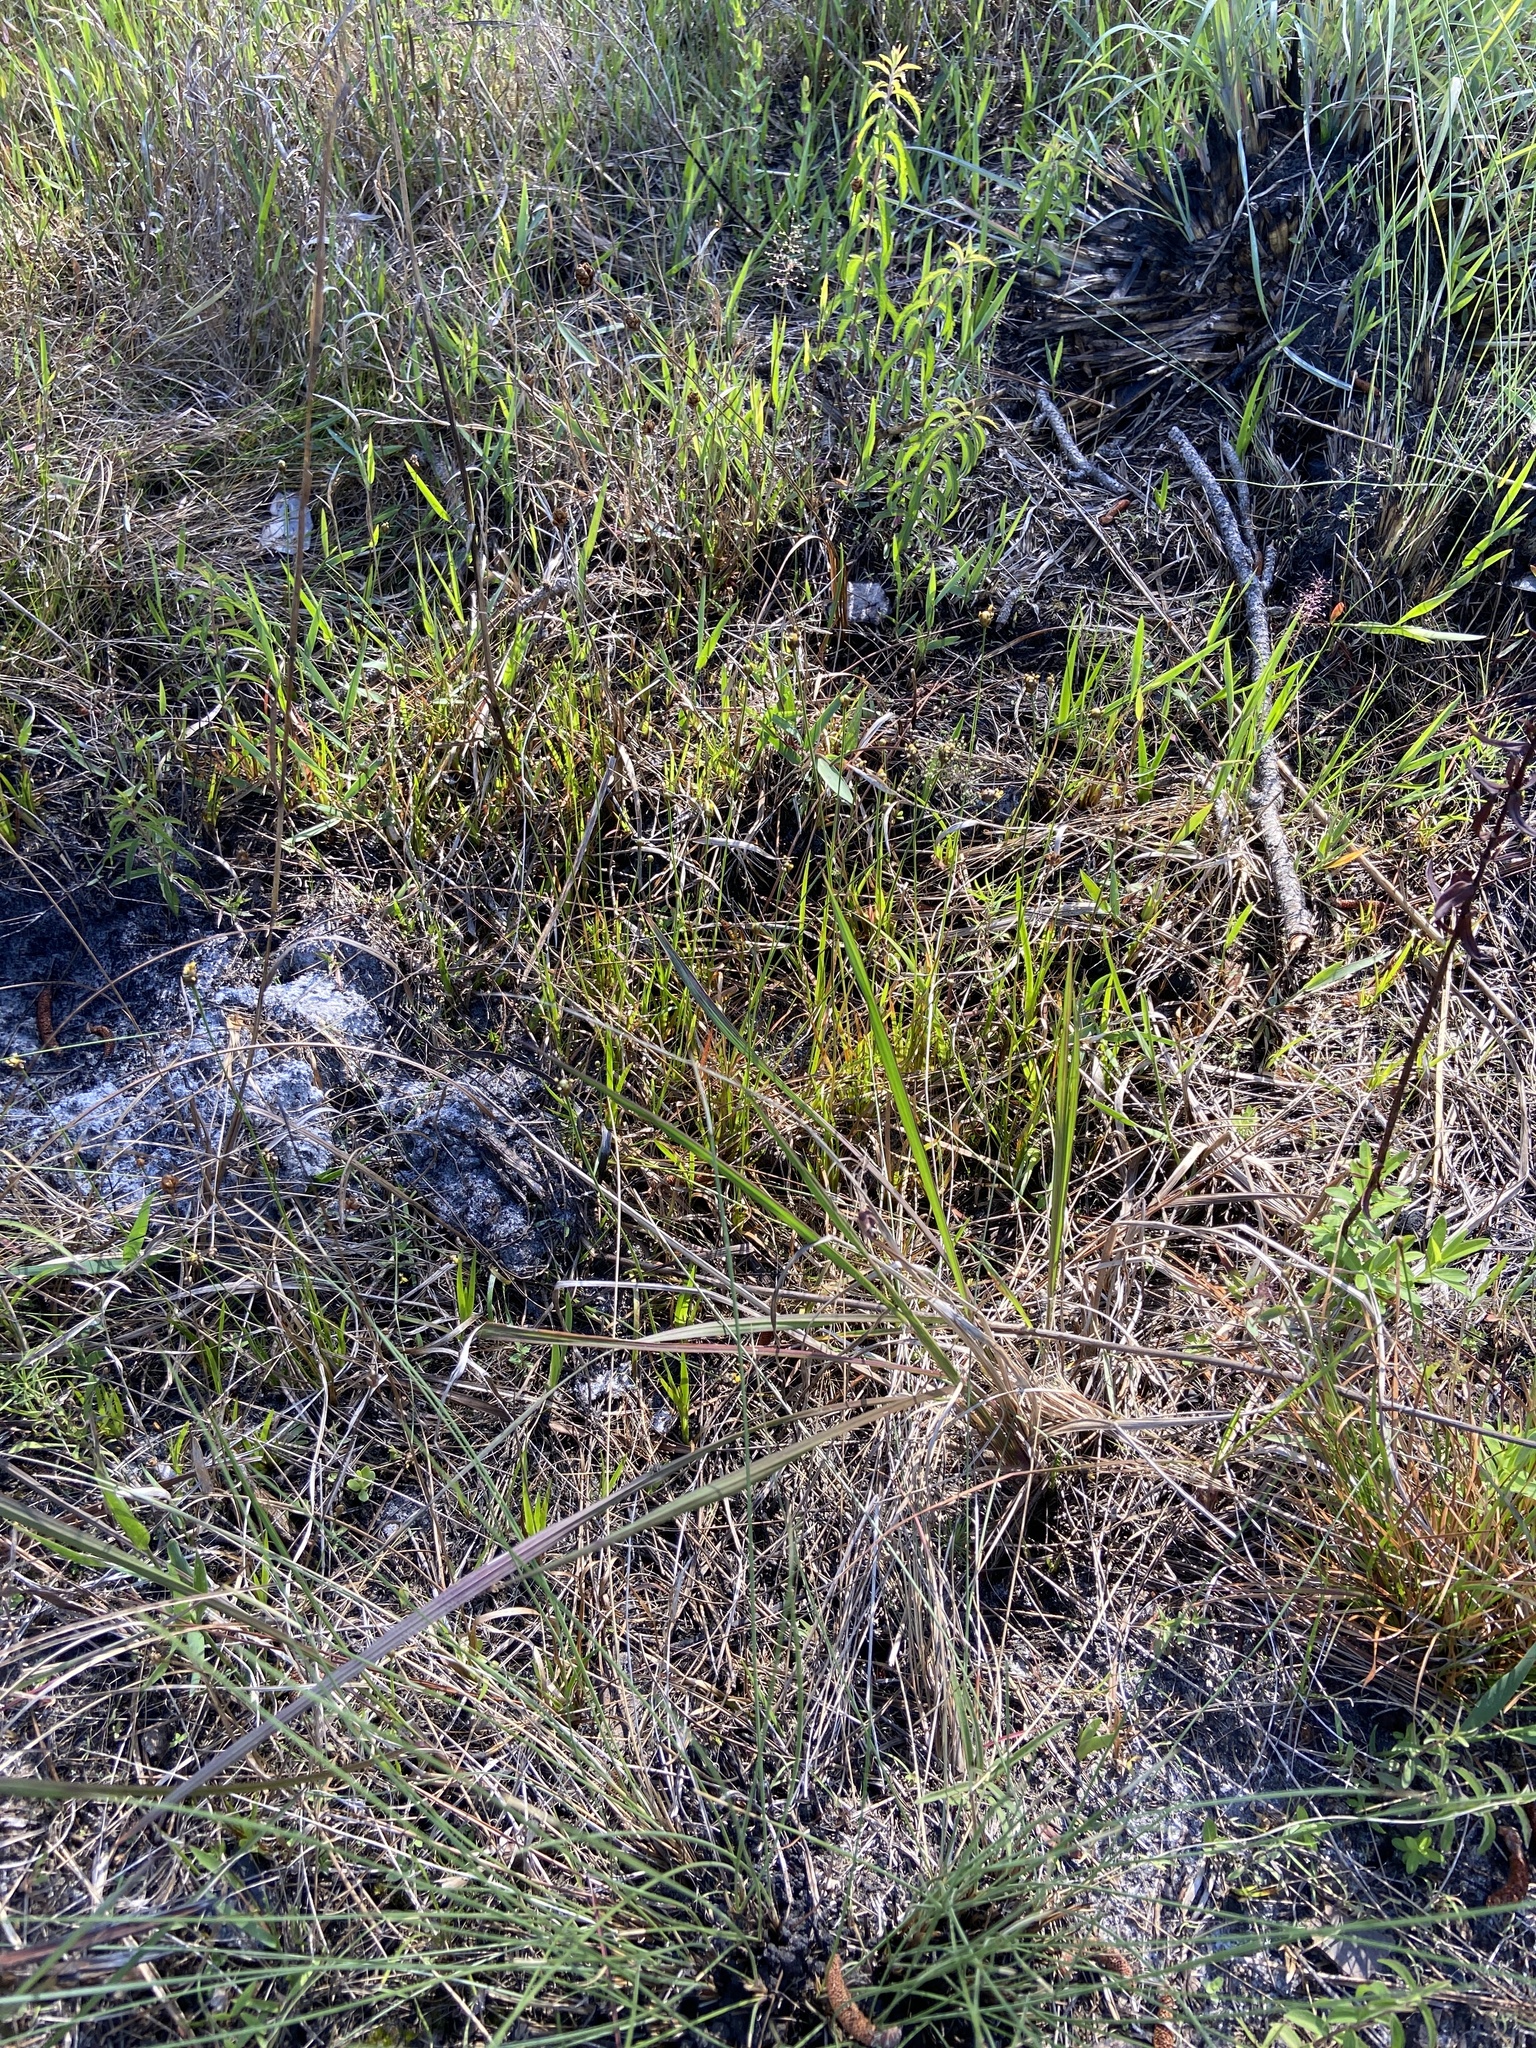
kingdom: Plantae
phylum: Tracheophyta
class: Liliopsida
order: Poales
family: Xyridaceae
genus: Xyris
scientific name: Xyris jupicai
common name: Richard's yelloweyed grass
